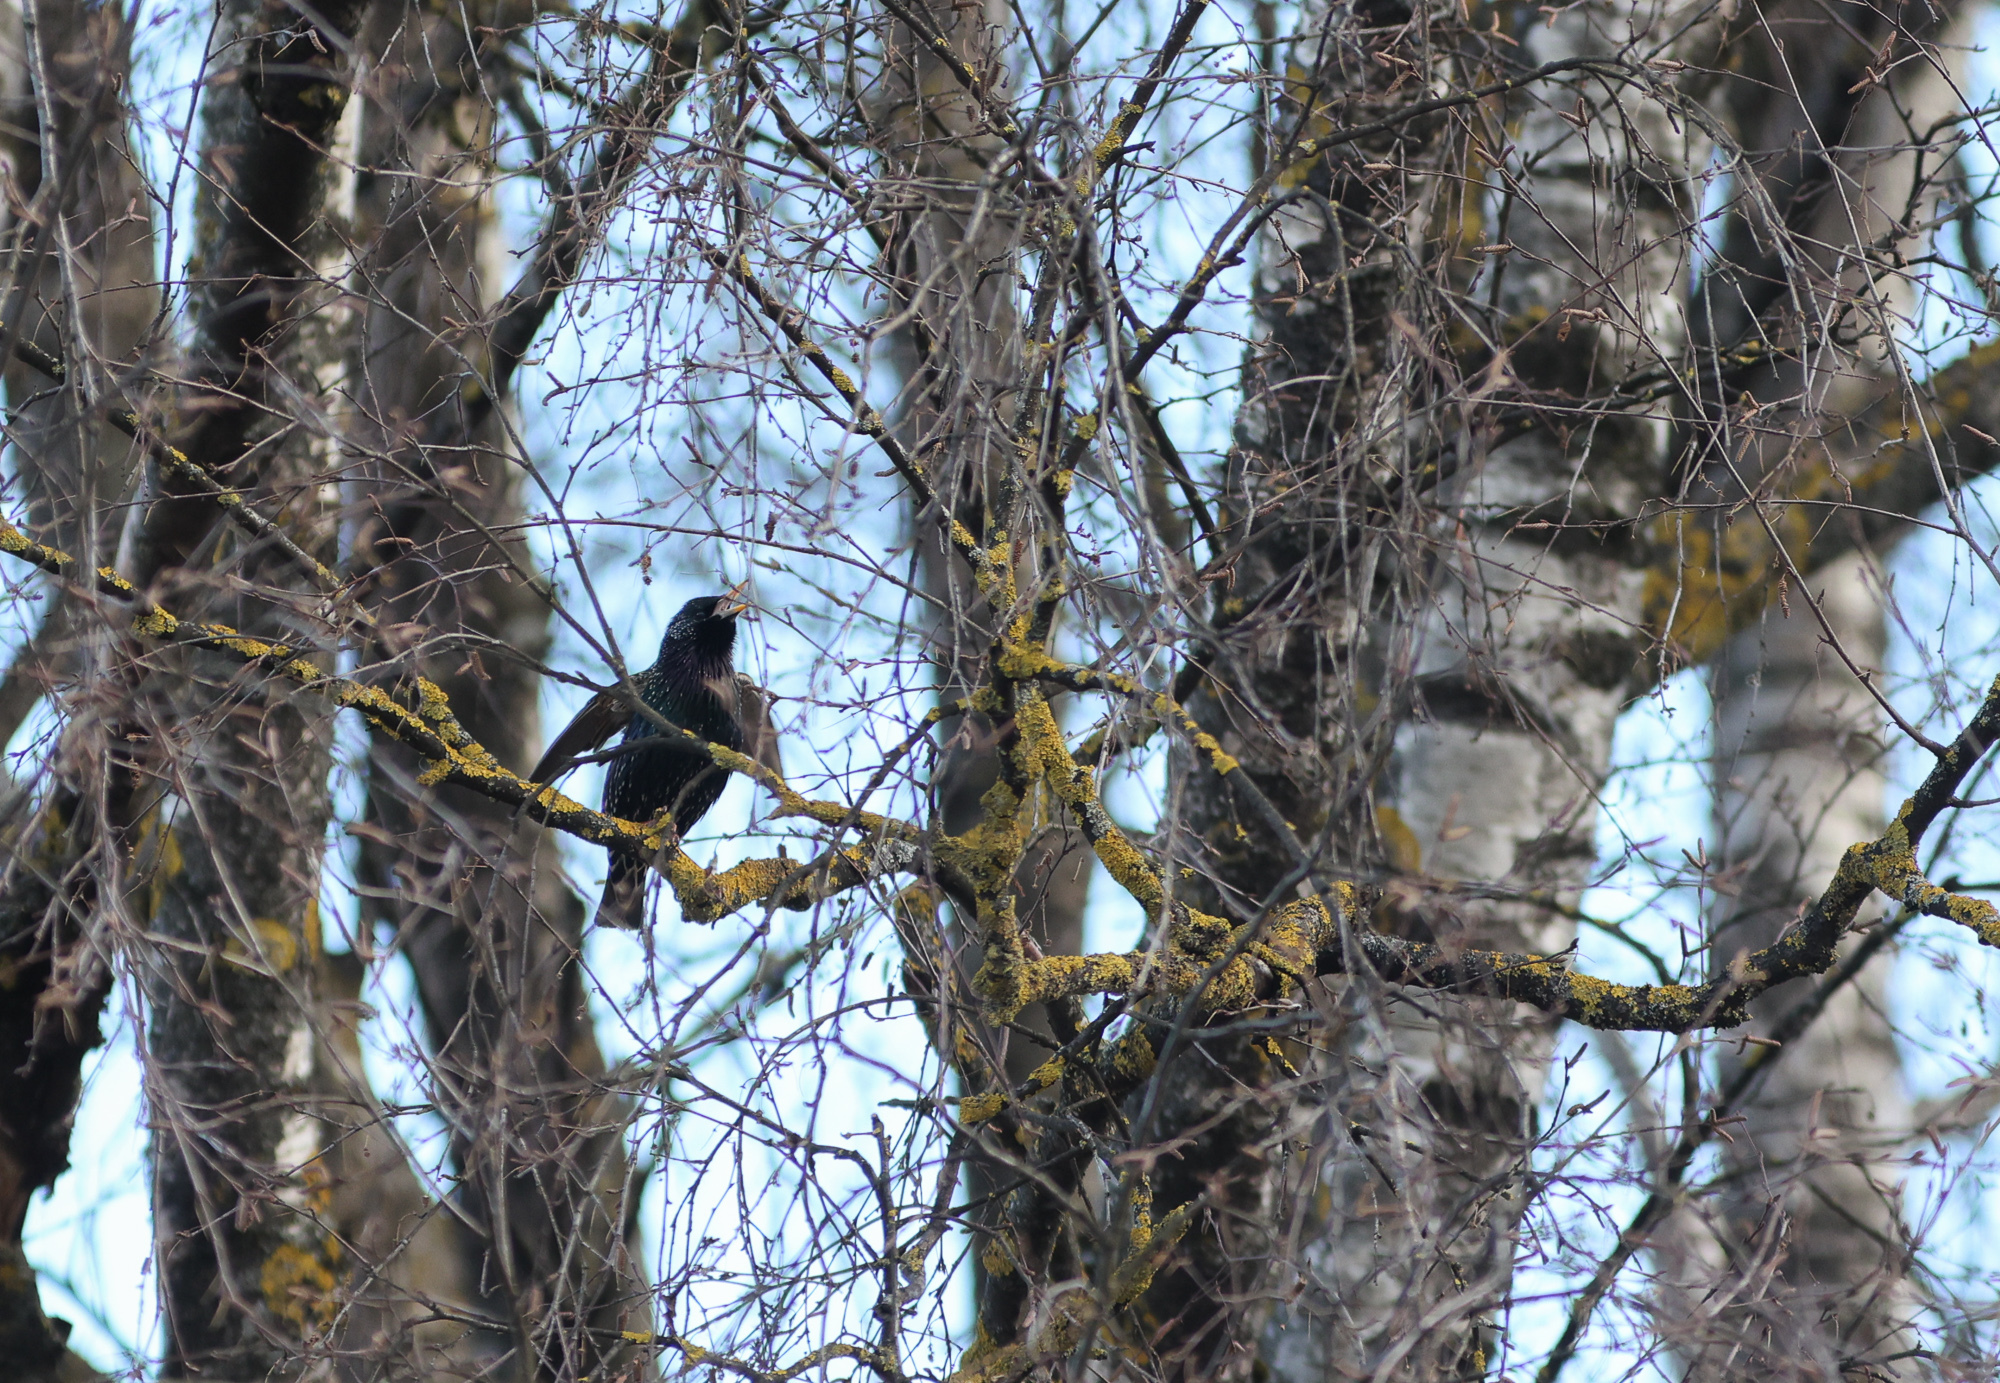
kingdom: Animalia
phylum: Chordata
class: Aves
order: Passeriformes
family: Sturnidae
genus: Sturnus
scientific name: Sturnus vulgaris
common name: Common starling
